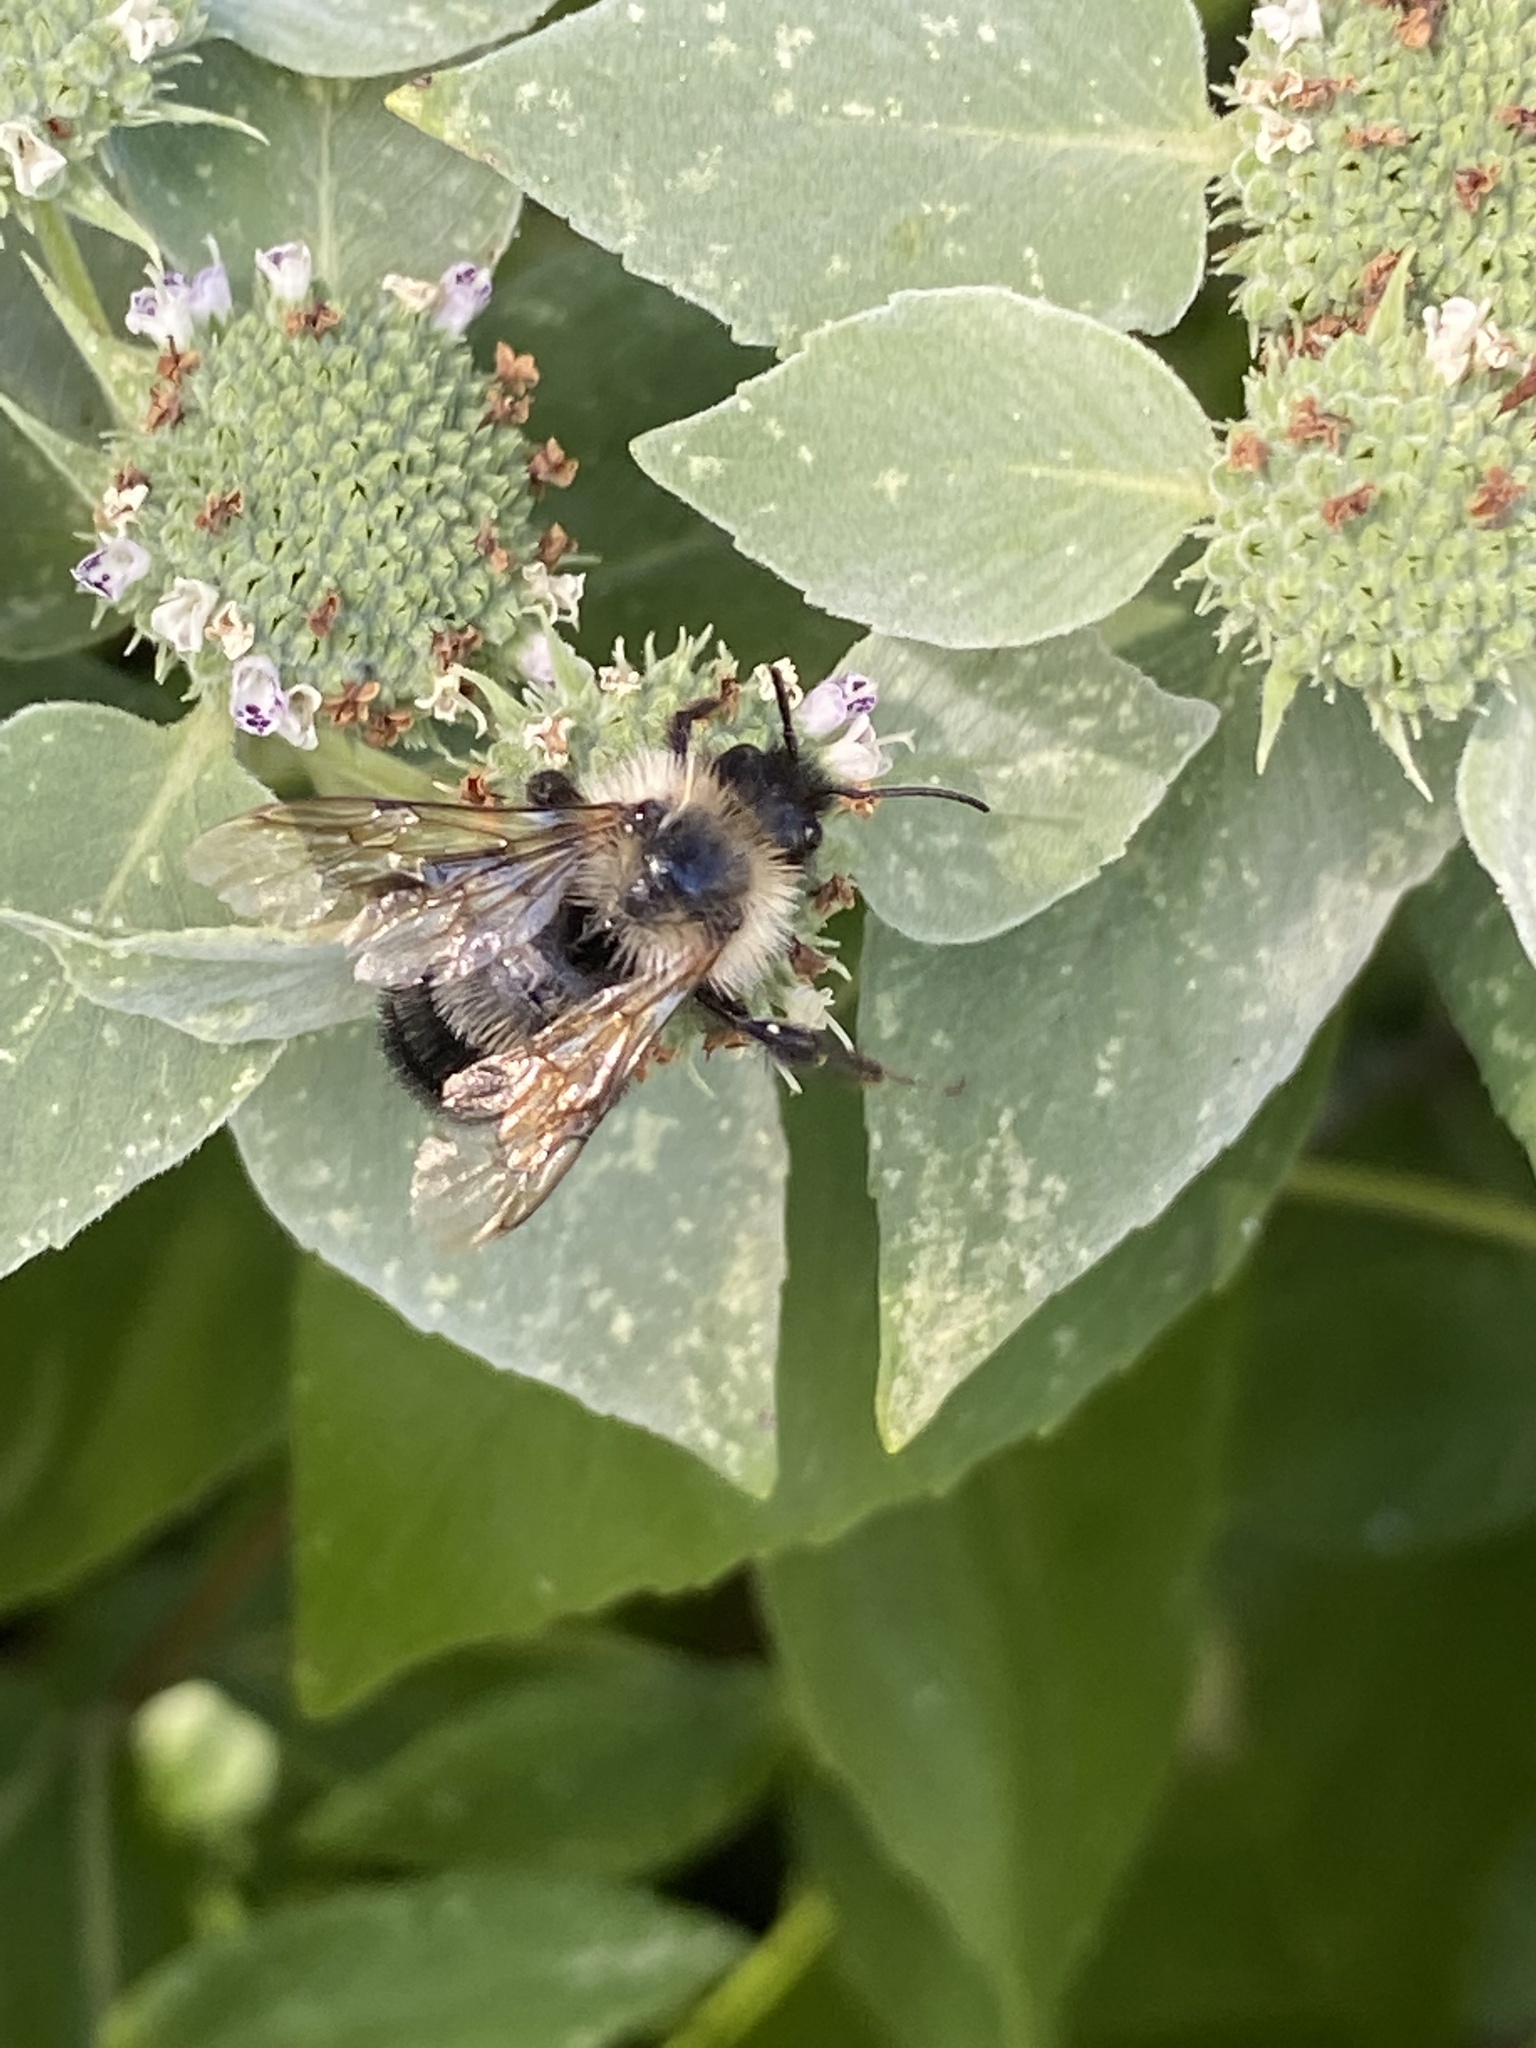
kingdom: Animalia
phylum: Arthropoda
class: Insecta
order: Hymenoptera
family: Apidae
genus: Bombus
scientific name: Bombus citrinus
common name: Lemon cuckoo bumble bee
